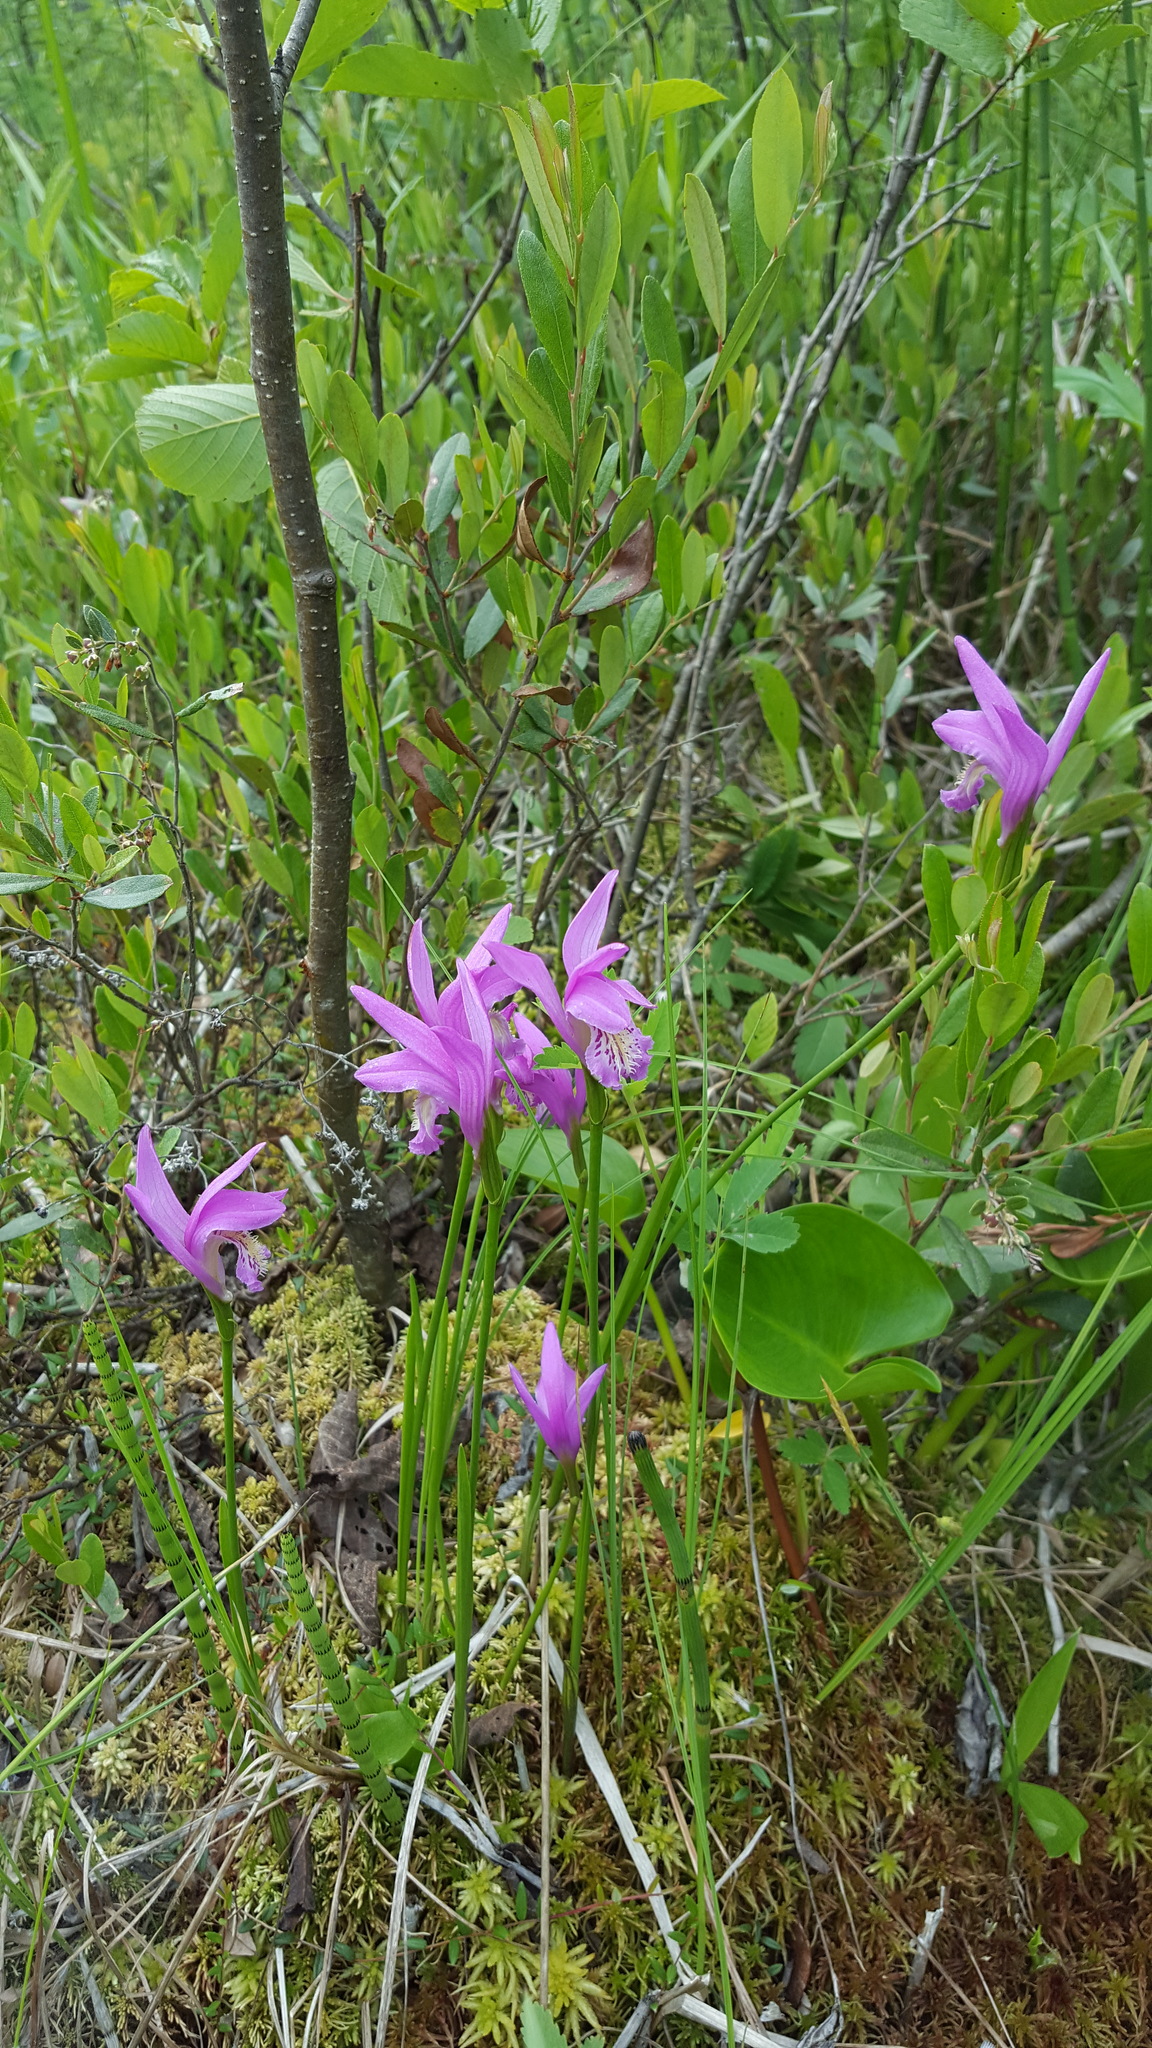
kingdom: Plantae
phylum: Tracheophyta
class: Liliopsida
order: Asparagales
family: Orchidaceae
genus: Arethusa
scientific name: Arethusa bulbosa
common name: Arethusa
